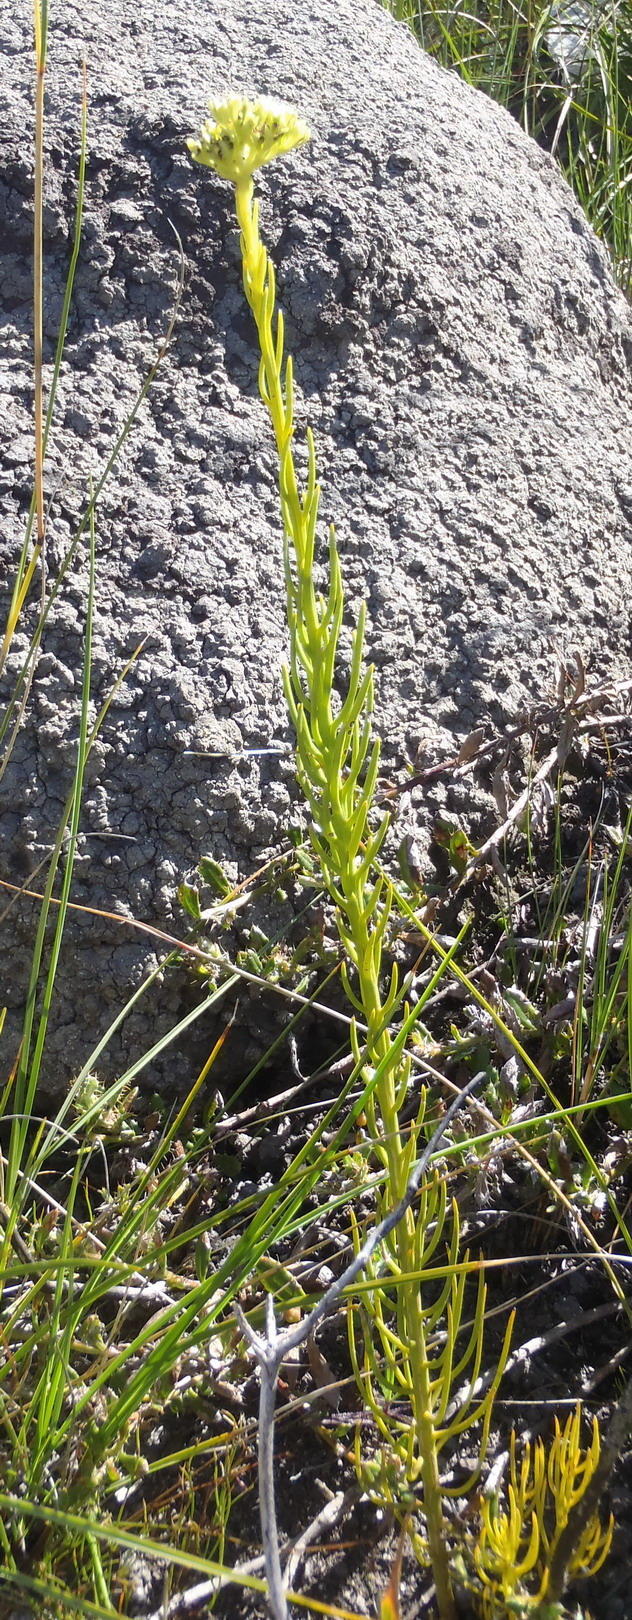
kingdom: Plantae
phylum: Tracheophyta
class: Magnoliopsida
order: Santalales
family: Thesiaceae
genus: Thesium
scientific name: Thesium glomeratum
